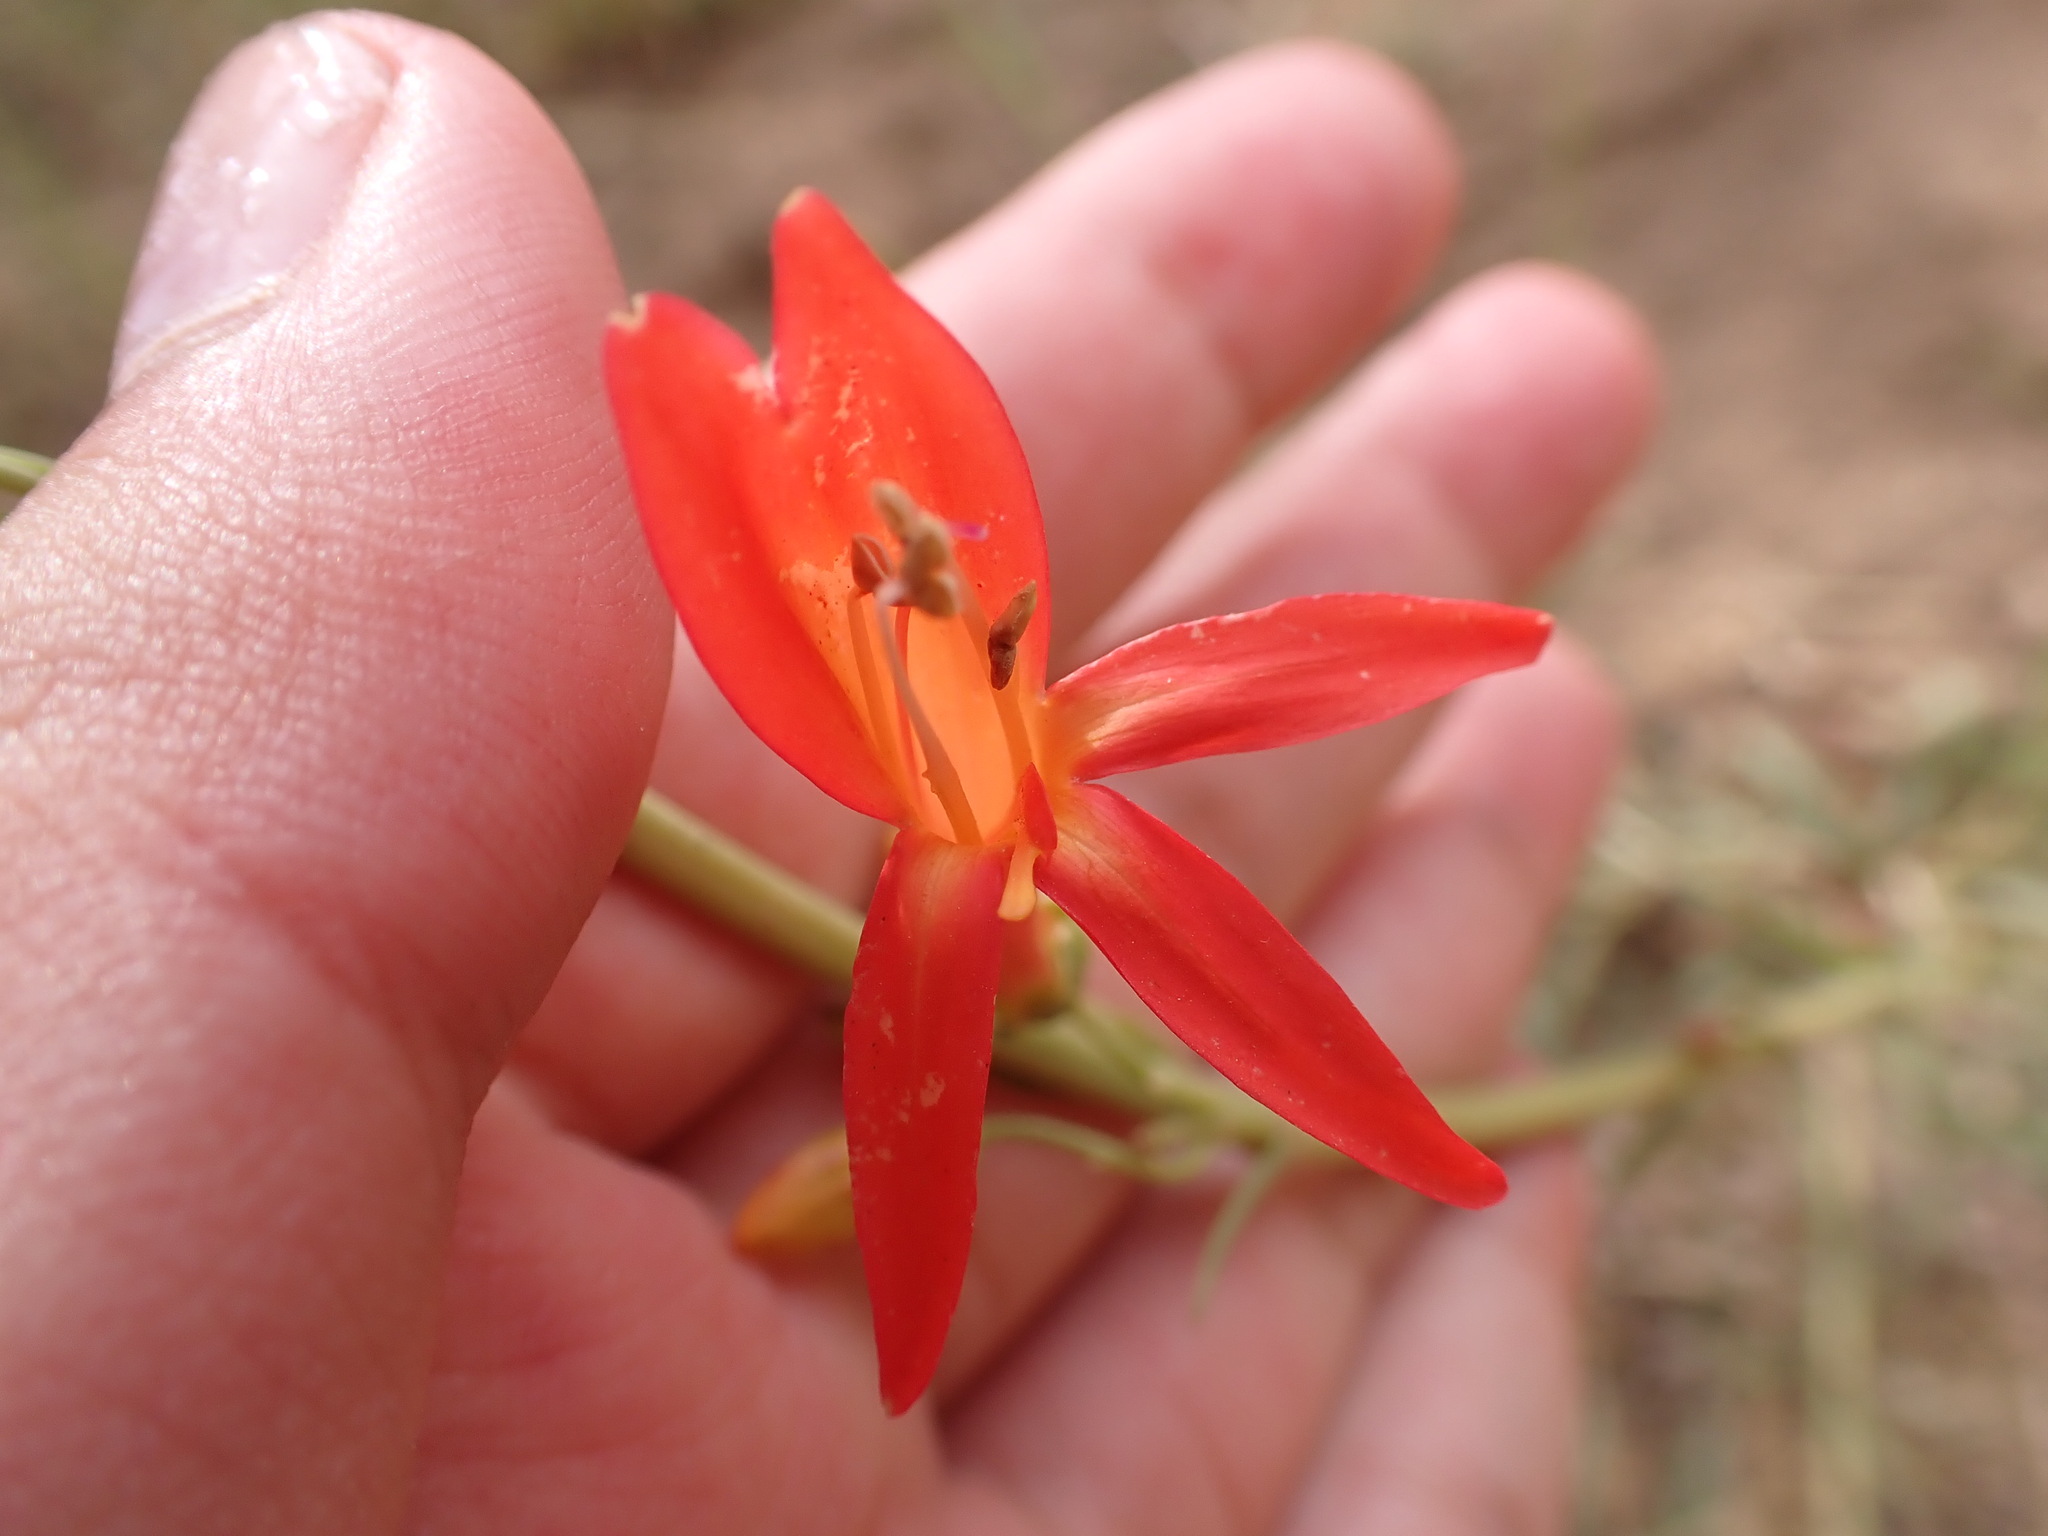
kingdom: Plantae
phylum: Tracheophyta
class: Magnoliopsida
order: Lamiales
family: Plantaginaceae
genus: Penstemon
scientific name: Penstemon labrosus
